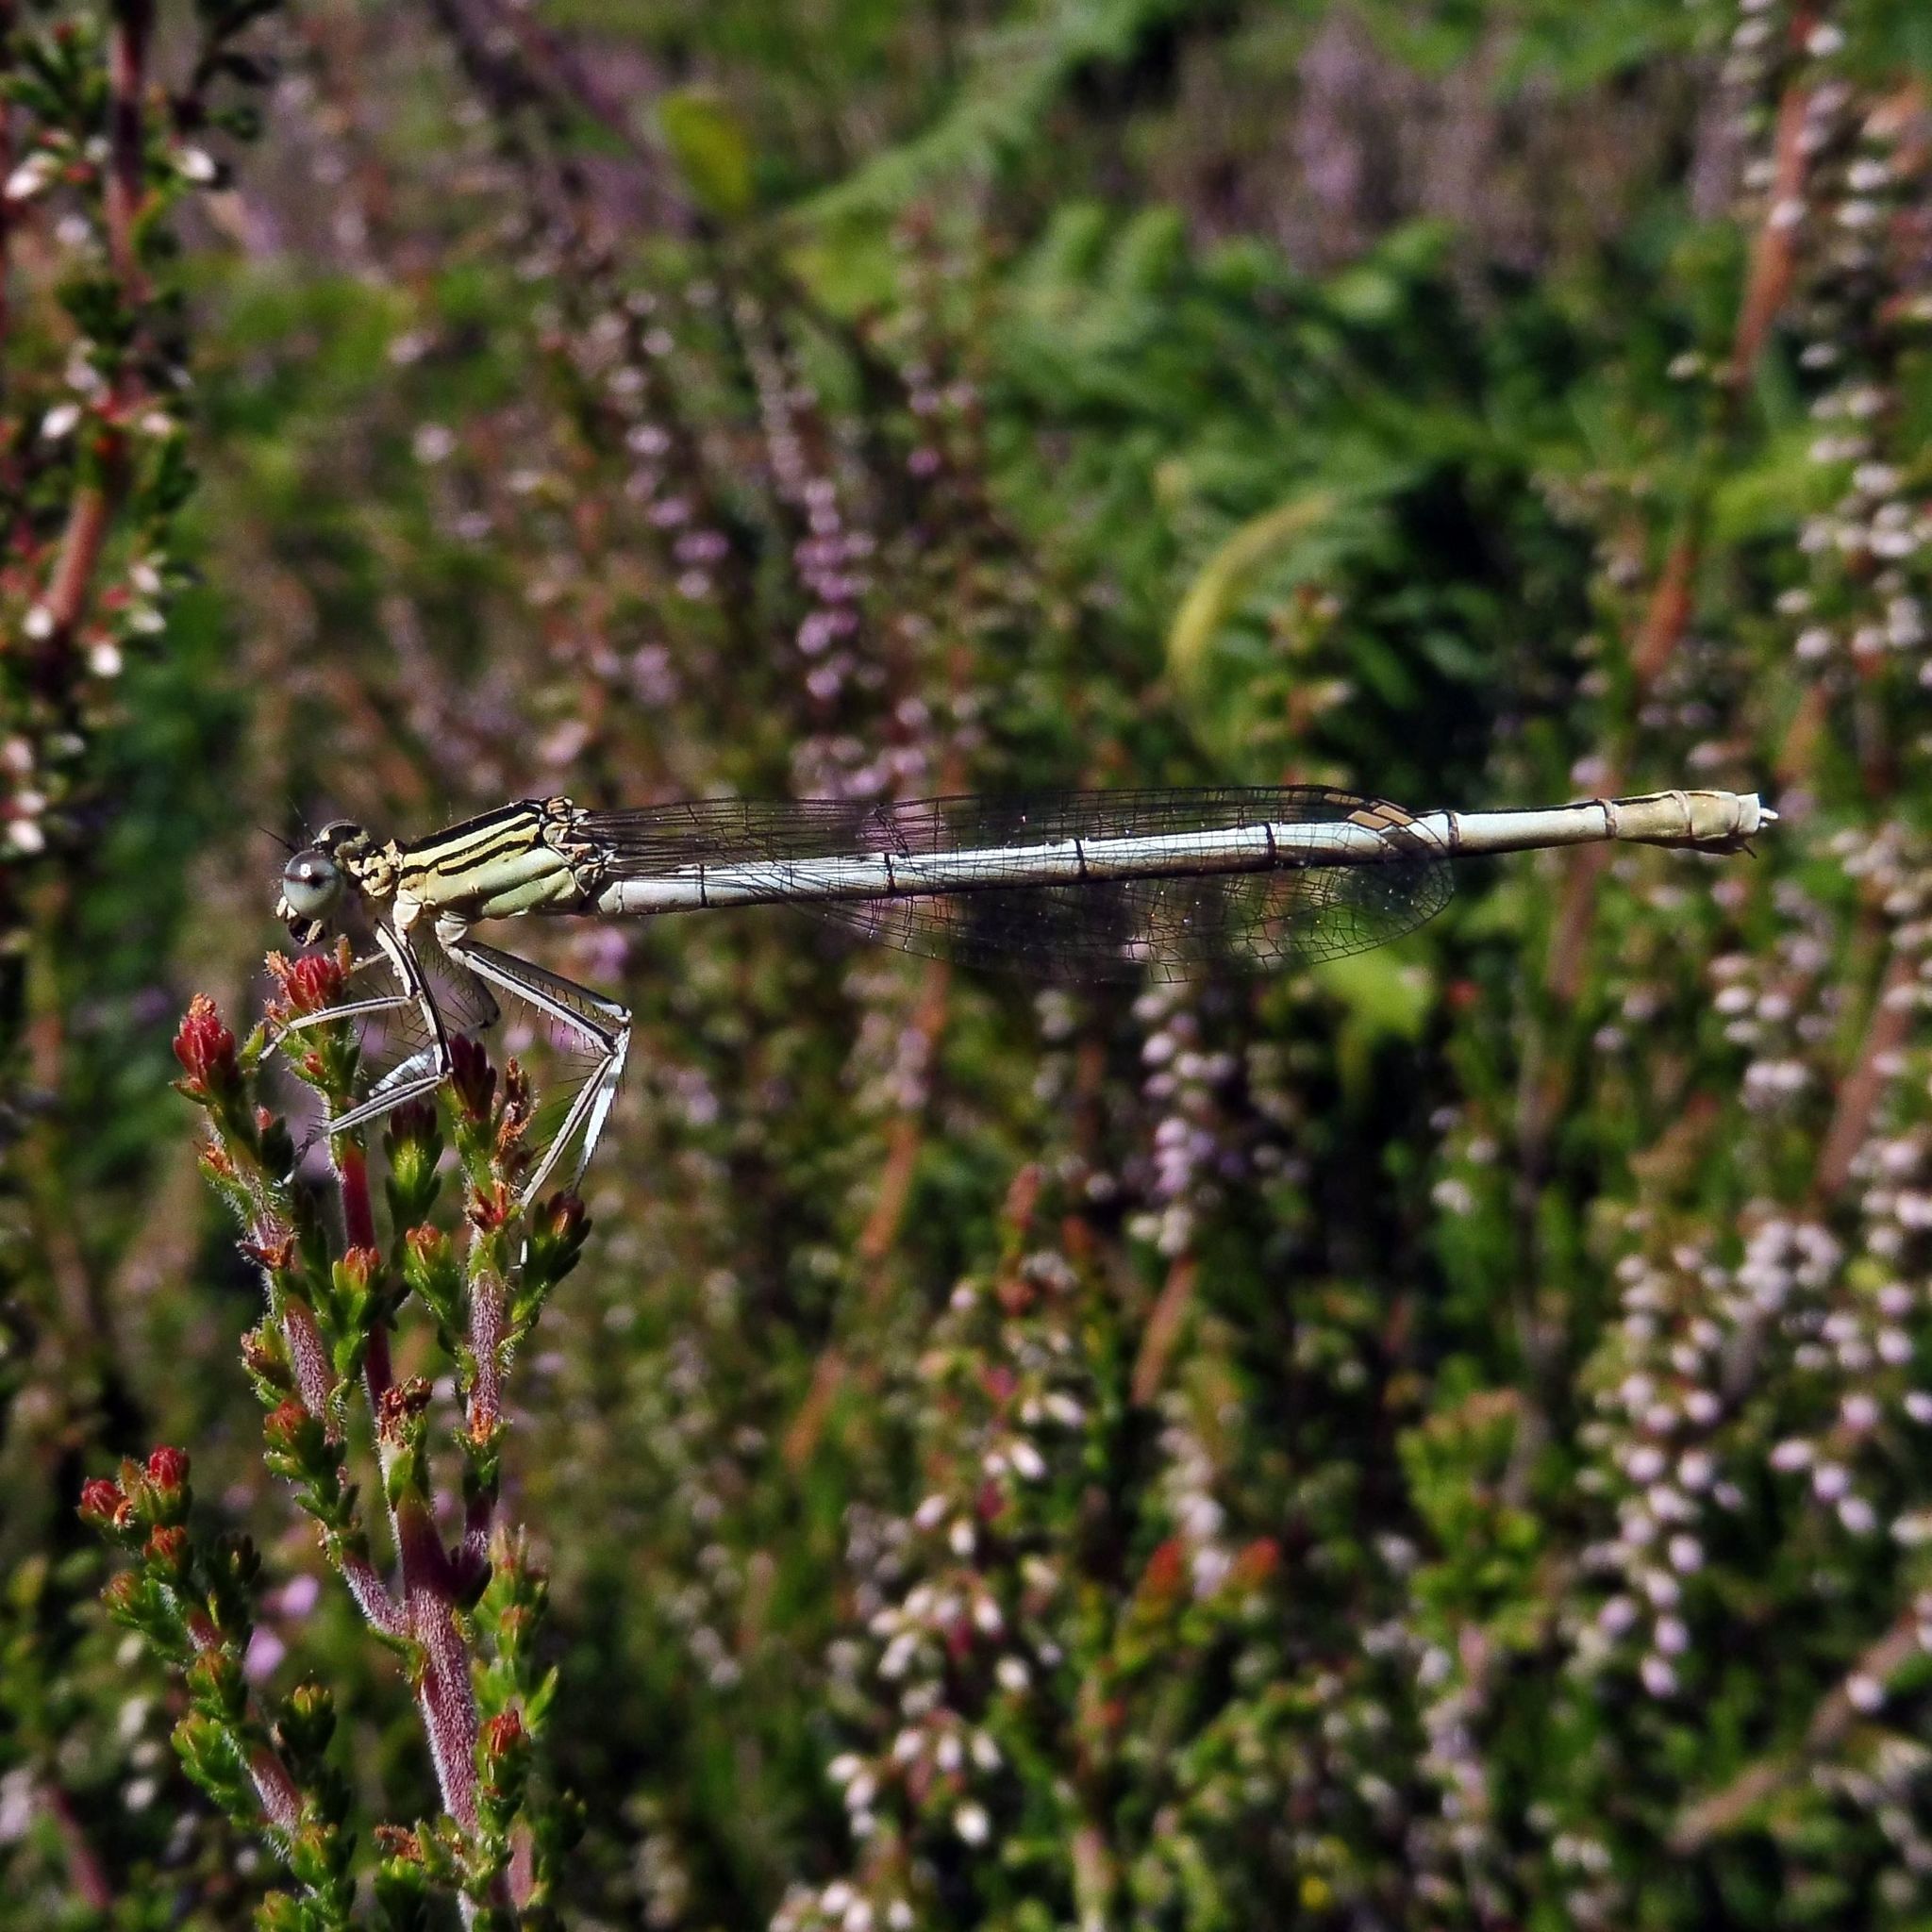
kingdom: Animalia
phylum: Arthropoda
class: Insecta
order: Odonata
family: Platycnemididae
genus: Platycnemis
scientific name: Platycnemis pennipes
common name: White-legged damselfly
